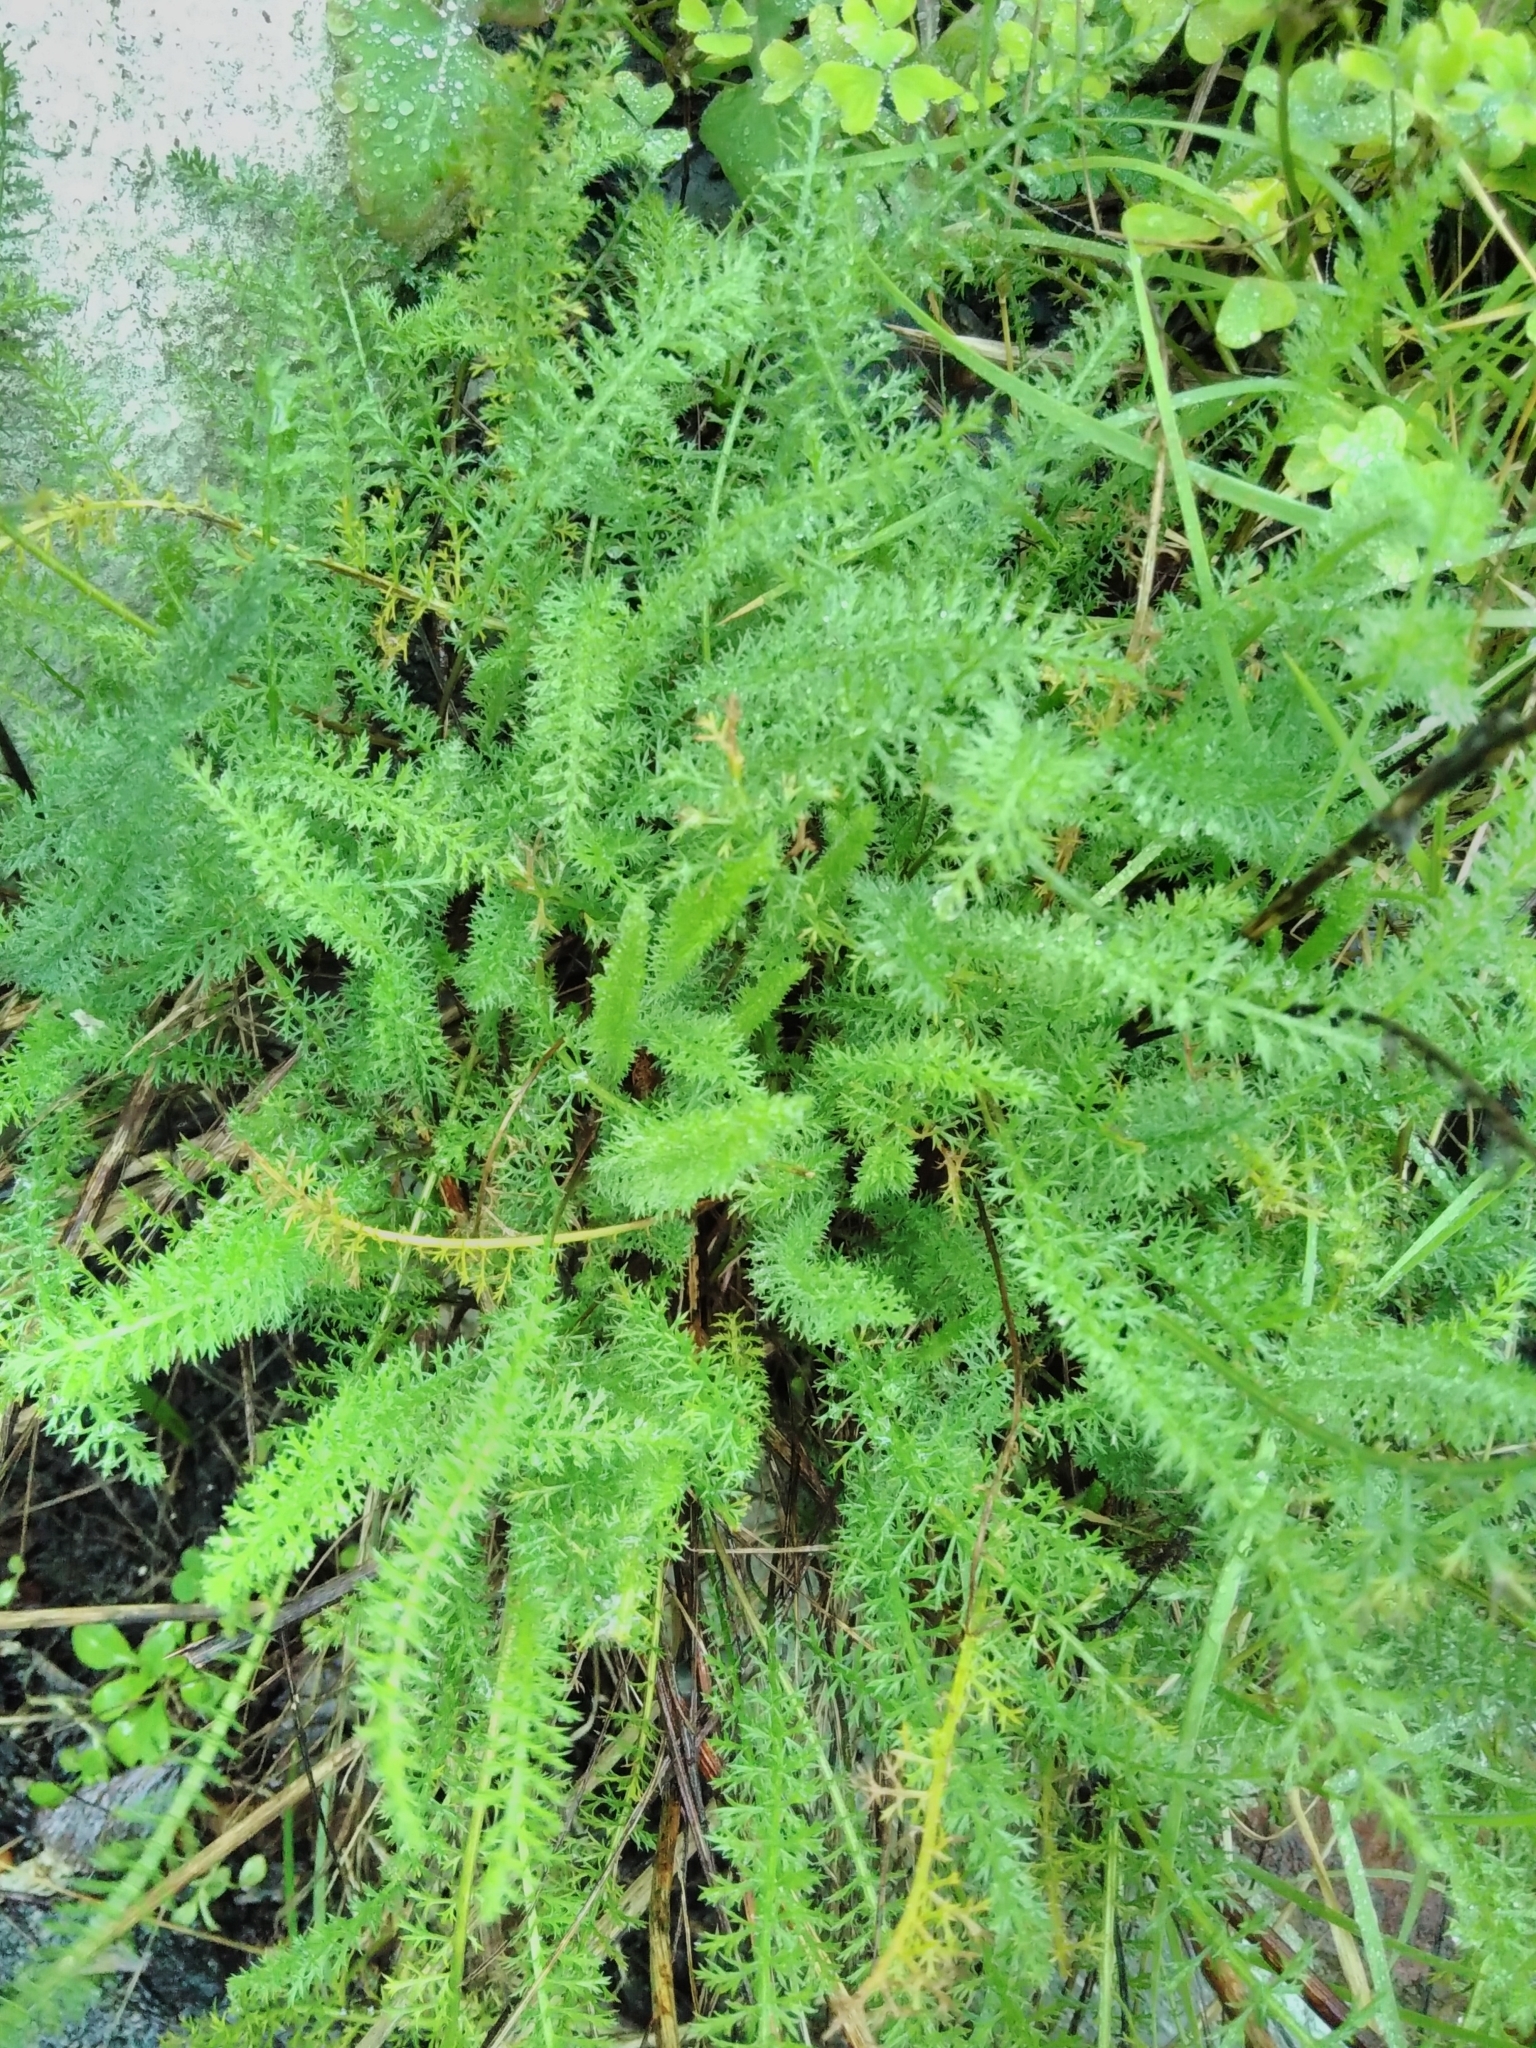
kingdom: Plantae
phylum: Tracheophyta
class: Magnoliopsida
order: Asterales
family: Asteraceae
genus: Achillea
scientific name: Achillea millefolium
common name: Yarrow
